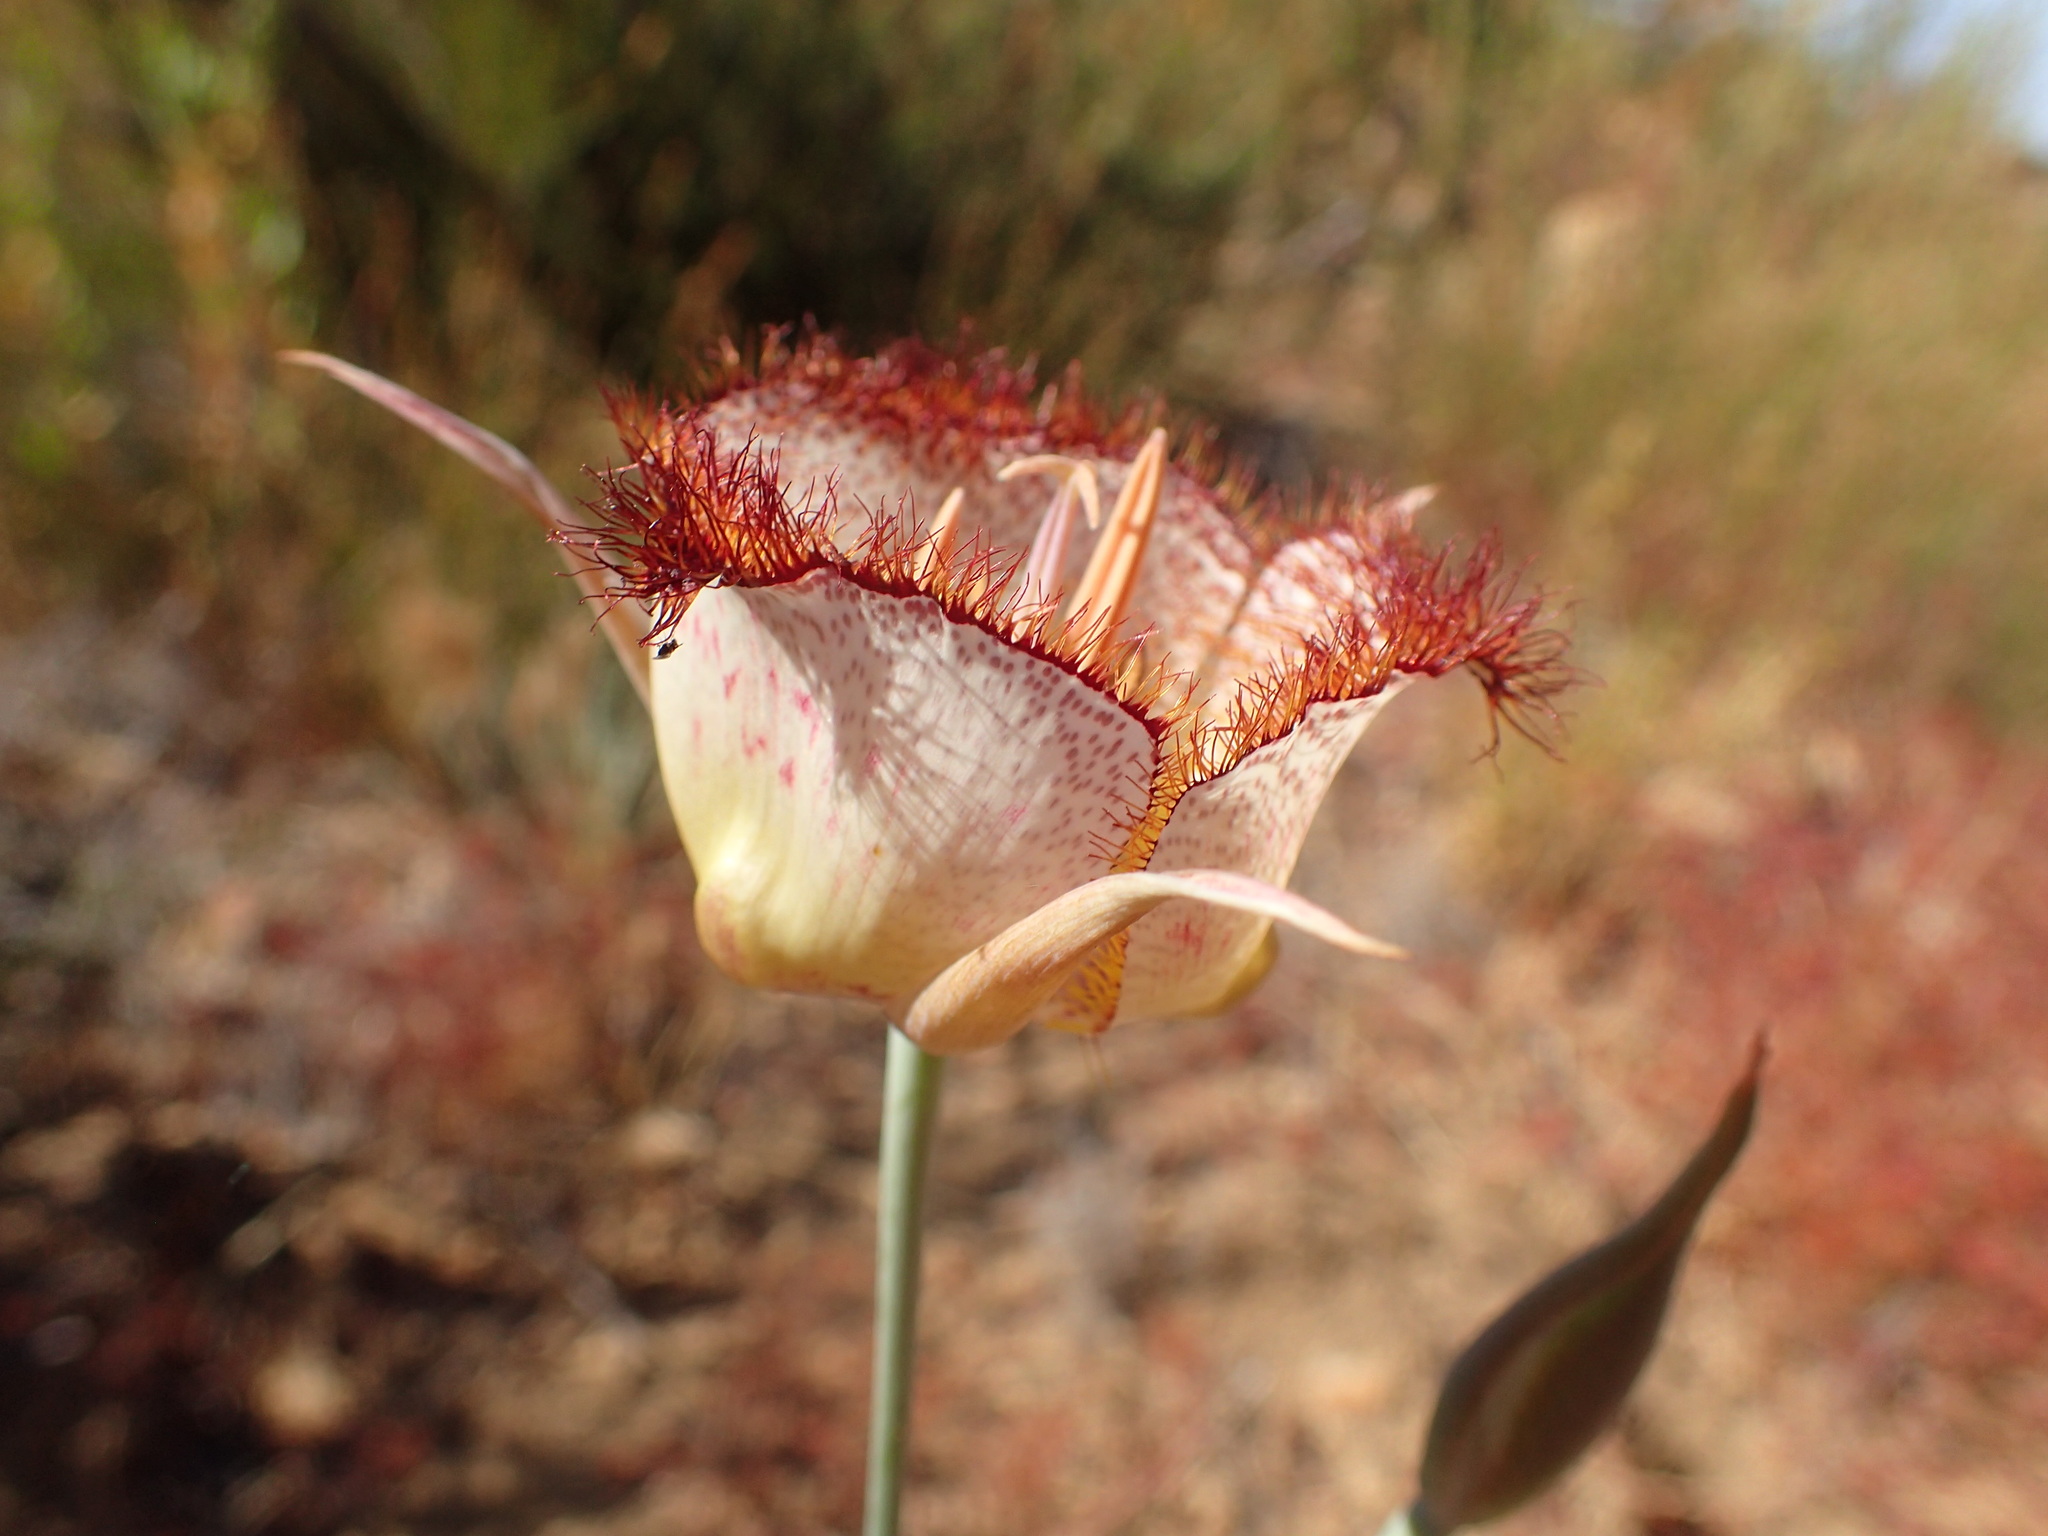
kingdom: Plantae
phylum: Tracheophyta
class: Liliopsida
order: Liliales
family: Liliaceae
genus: Calochortus
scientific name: Calochortus fimbriatus
